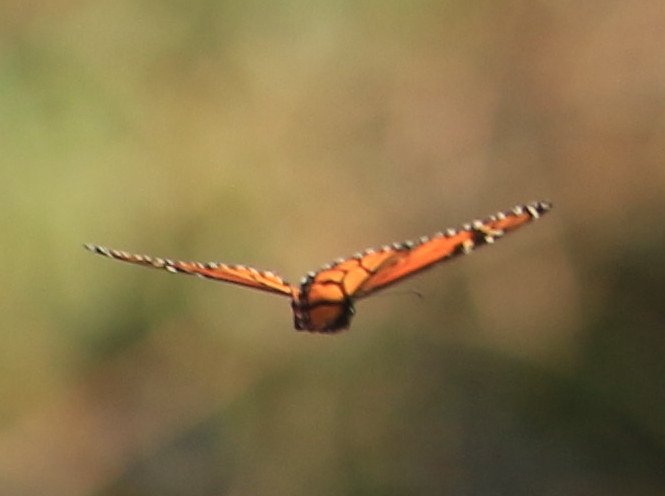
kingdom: Animalia
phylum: Arthropoda
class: Insecta
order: Lepidoptera
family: Nymphalidae
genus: Danaus
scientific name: Danaus plexippus
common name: Monarch
